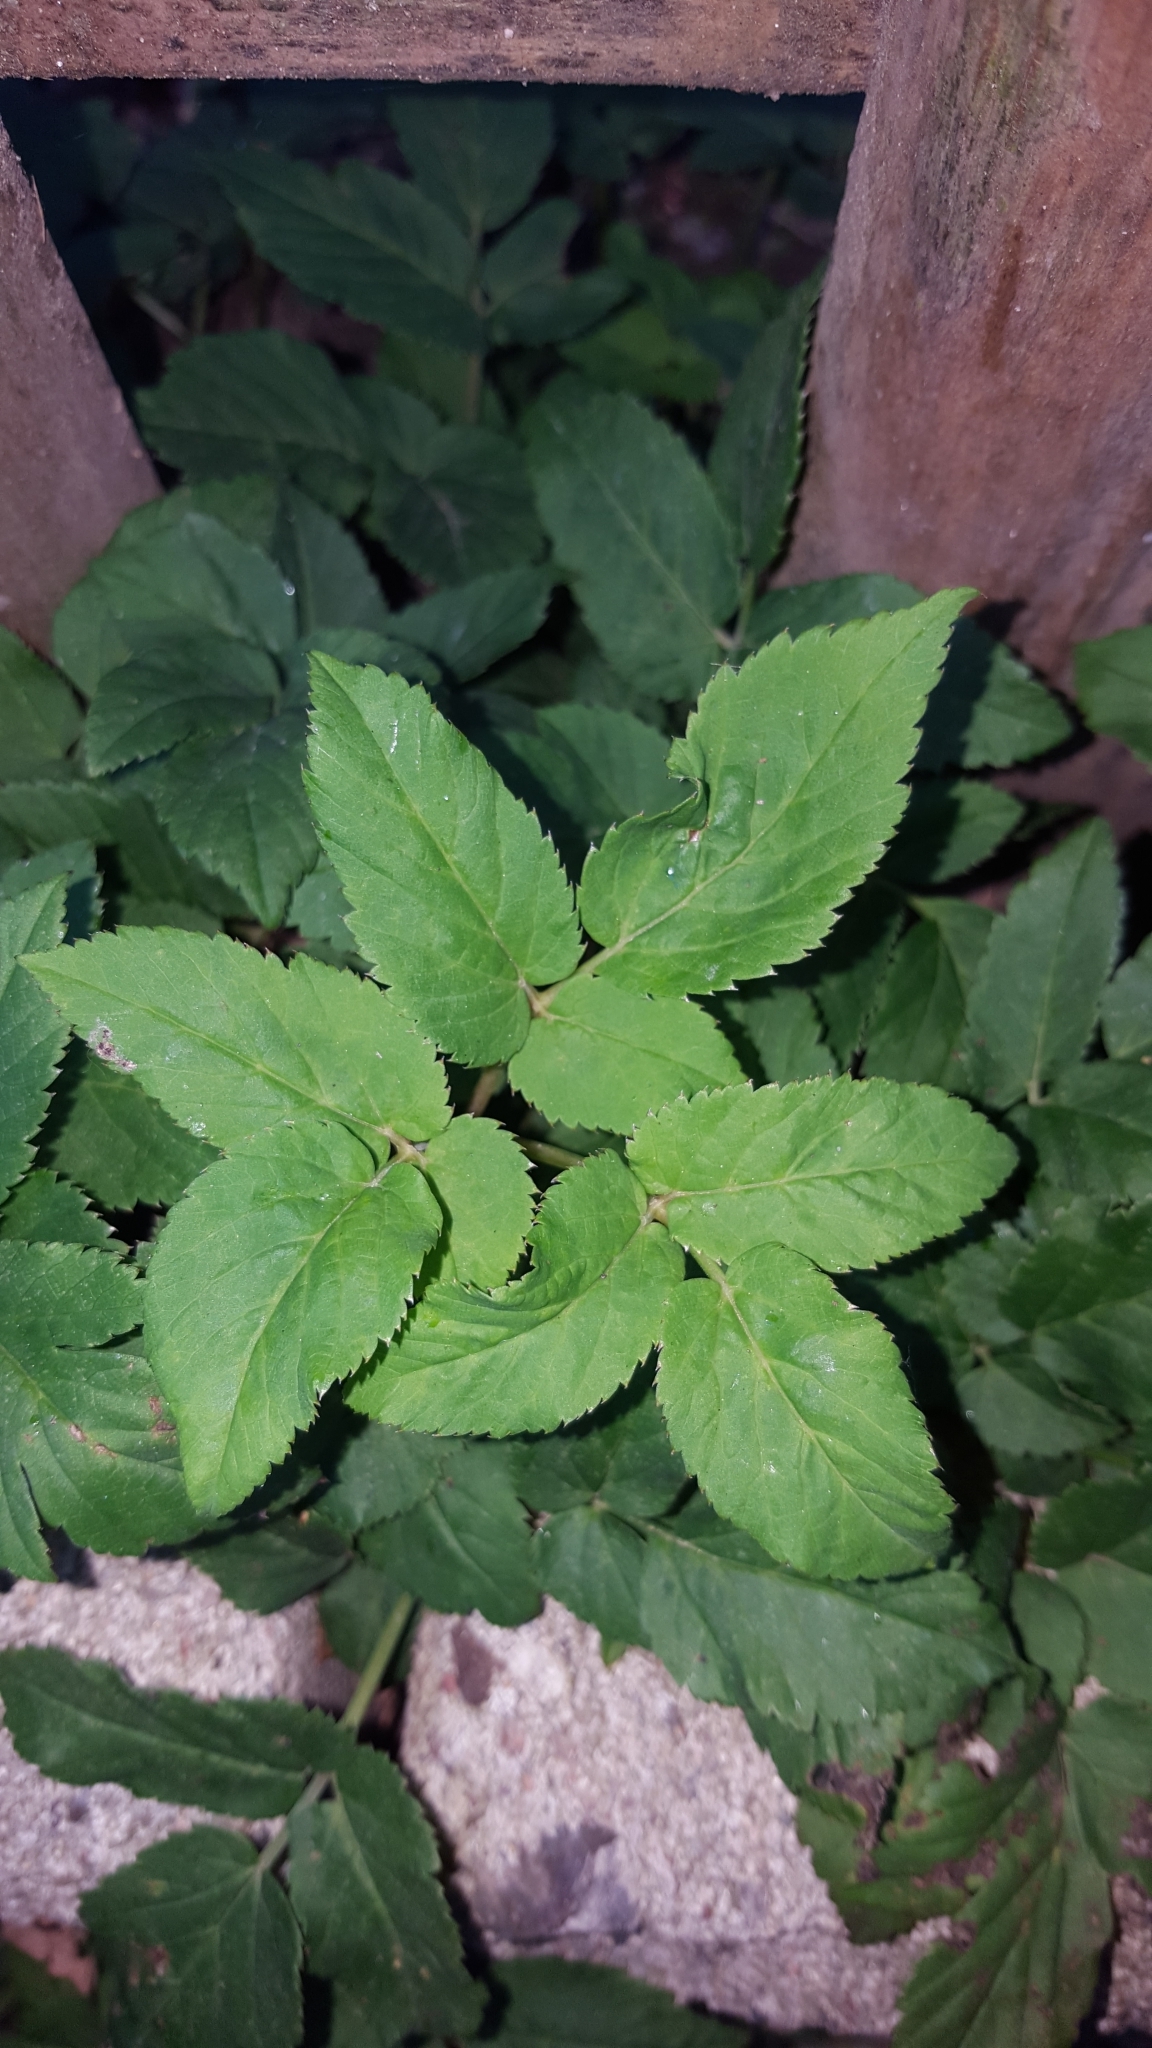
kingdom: Plantae
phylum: Tracheophyta
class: Magnoliopsida
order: Apiales
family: Apiaceae
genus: Aegopodium
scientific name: Aegopodium podagraria
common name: Ground-elder
